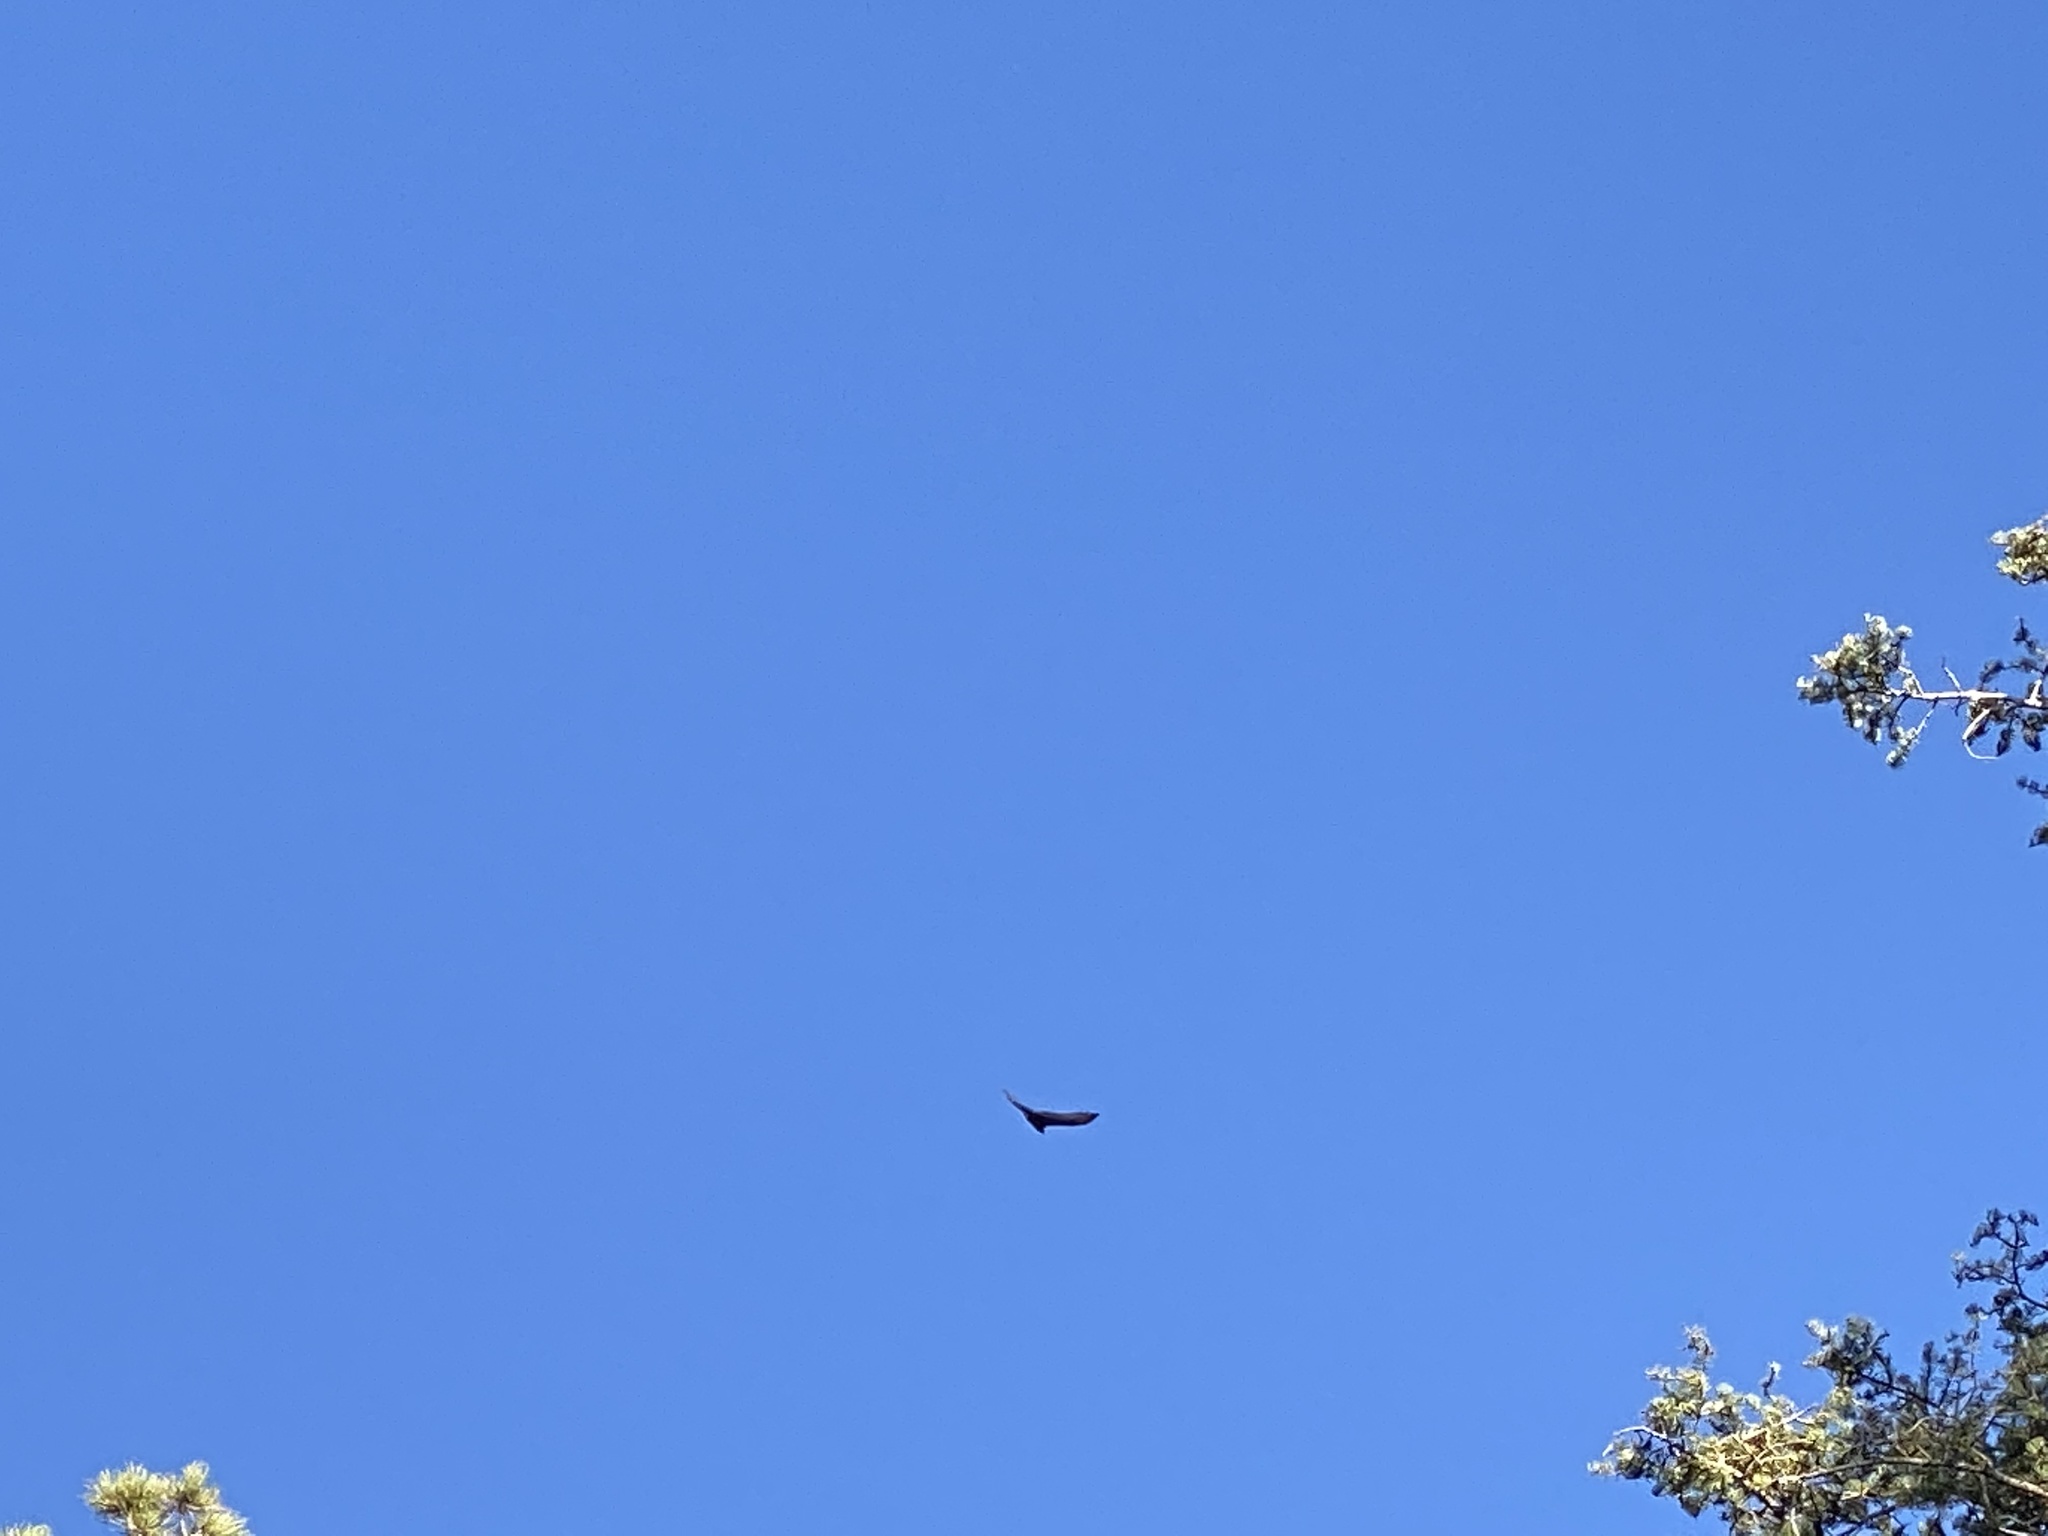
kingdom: Animalia
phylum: Chordata
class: Aves
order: Accipitriformes
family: Cathartidae
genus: Cathartes
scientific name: Cathartes aura
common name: Turkey vulture
